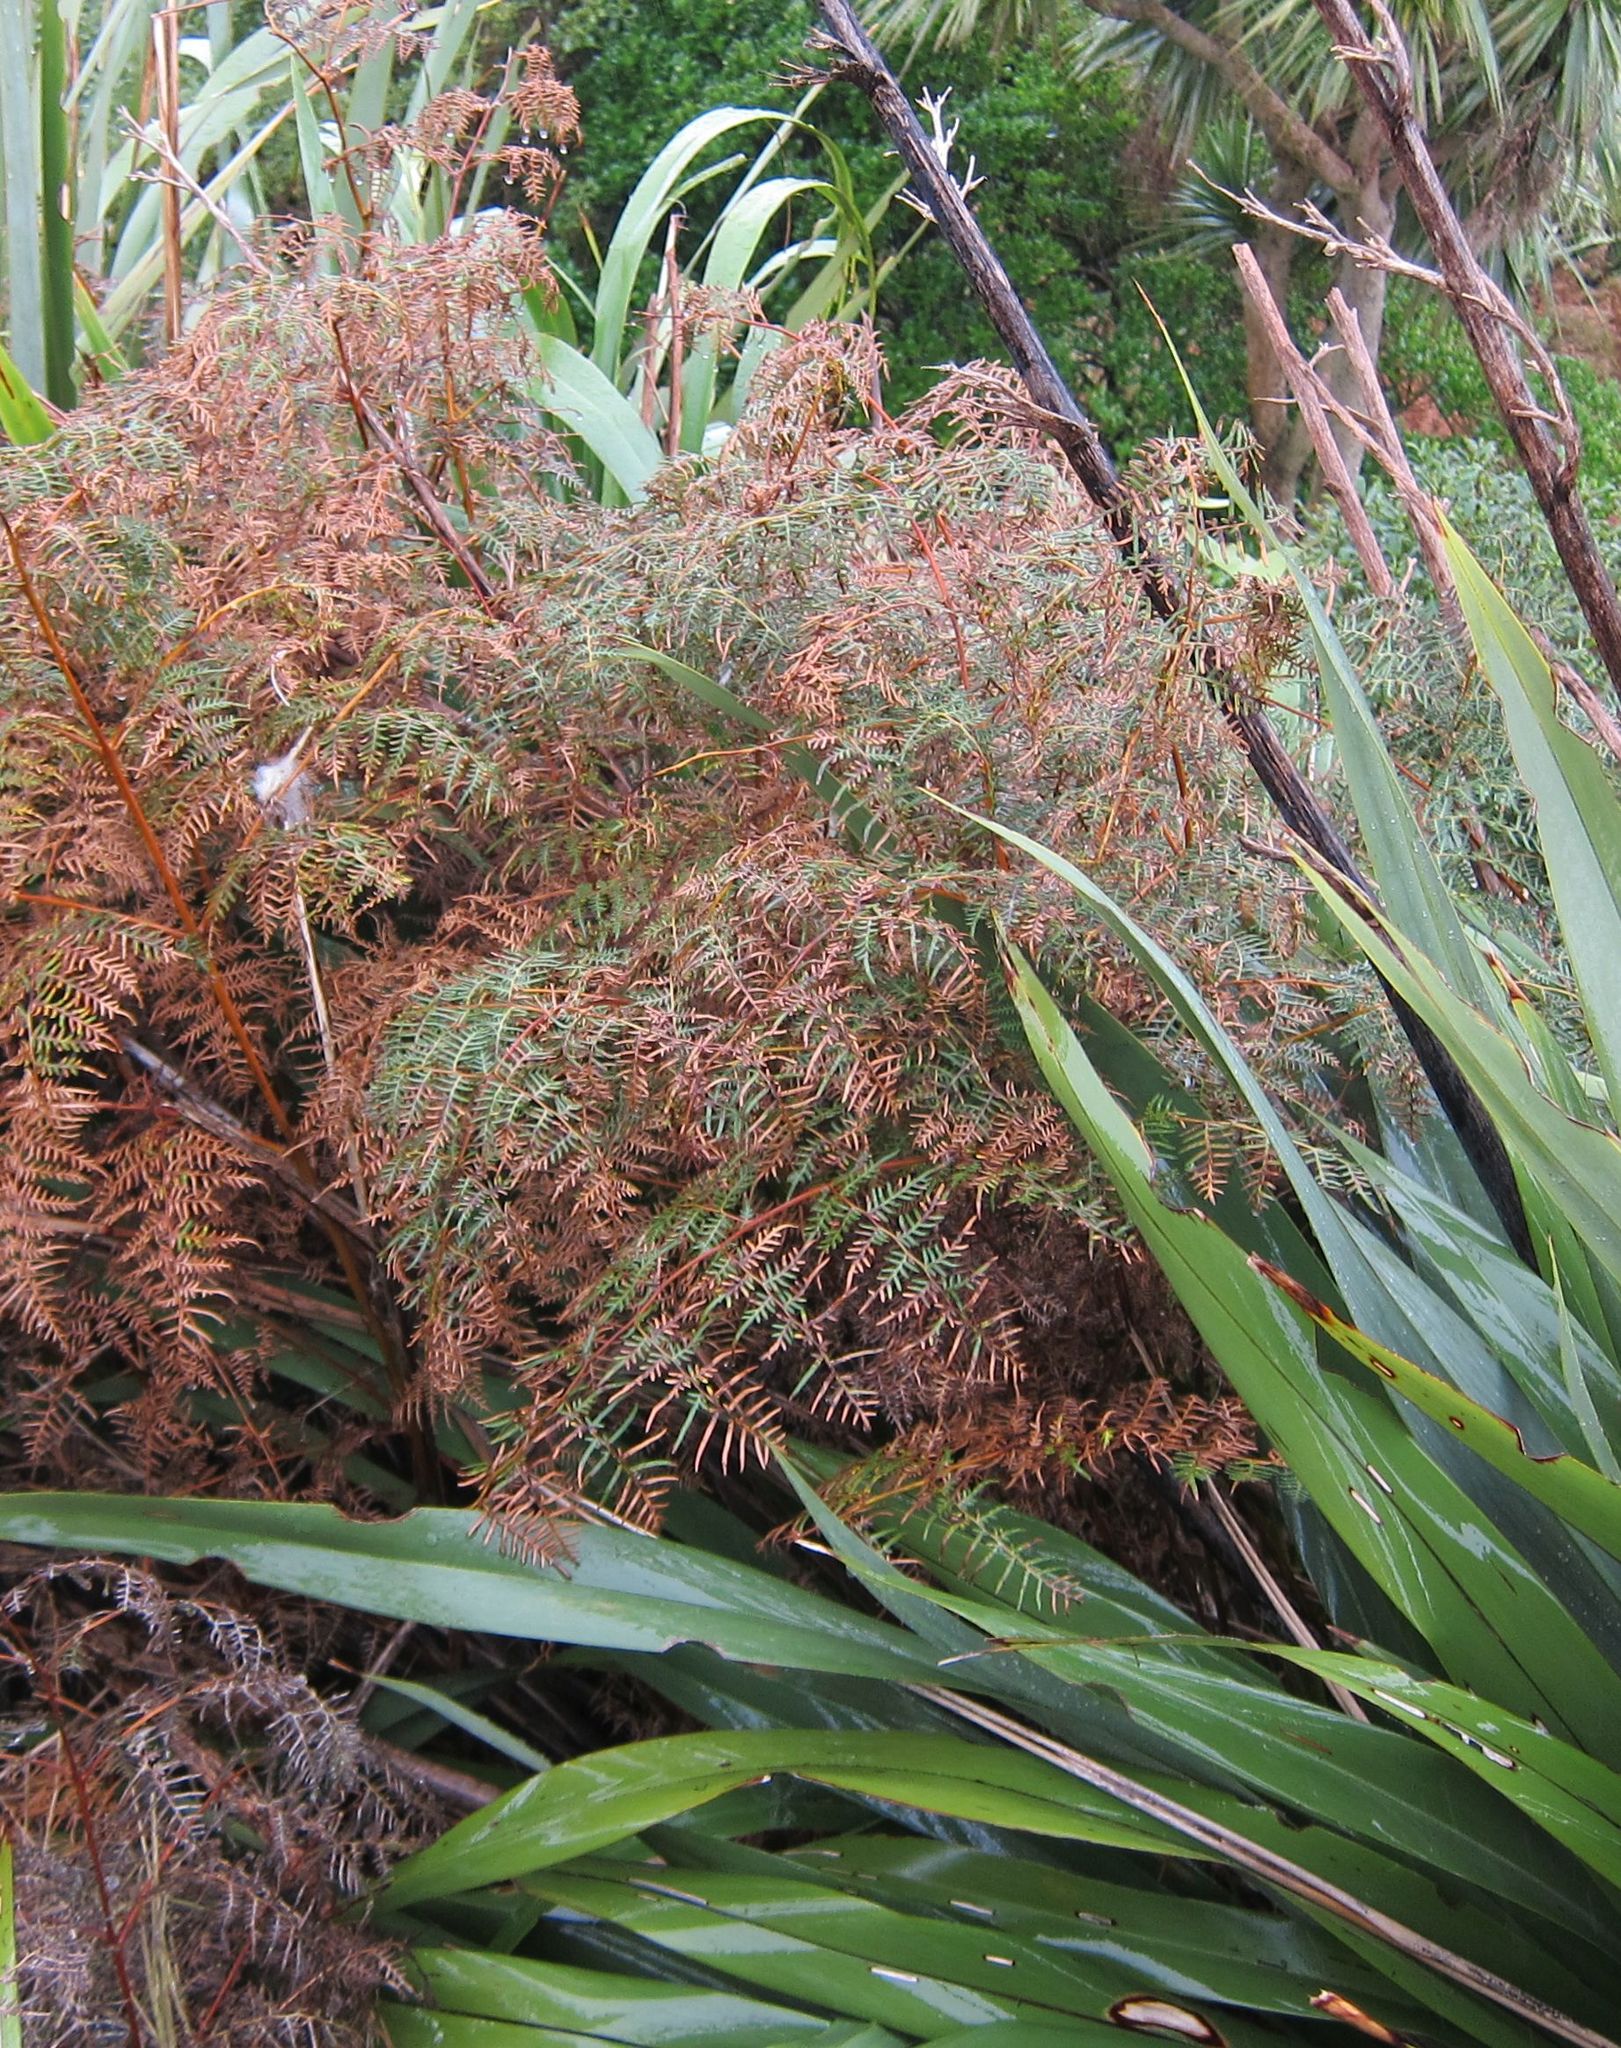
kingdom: Plantae
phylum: Tracheophyta
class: Polypodiopsida
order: Polypodiales
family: Dennstaedtiaceae
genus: Pteridium
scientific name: Pteridium esculentum
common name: Bracken fern
